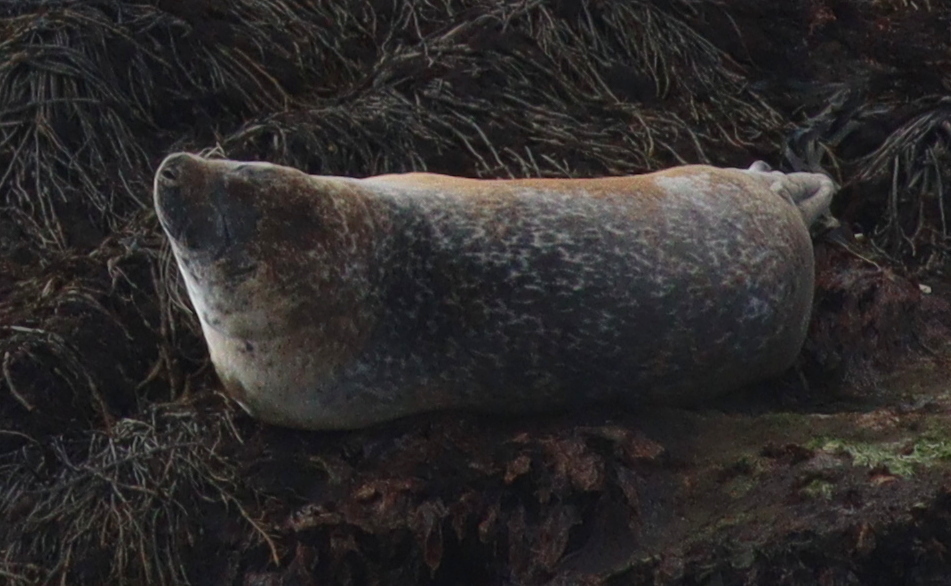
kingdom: Animalia
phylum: Chordata
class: Mammalia
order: Carnivora
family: Phocidae
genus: Phoca
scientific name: Phoca vitulina
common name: Harbor seal
